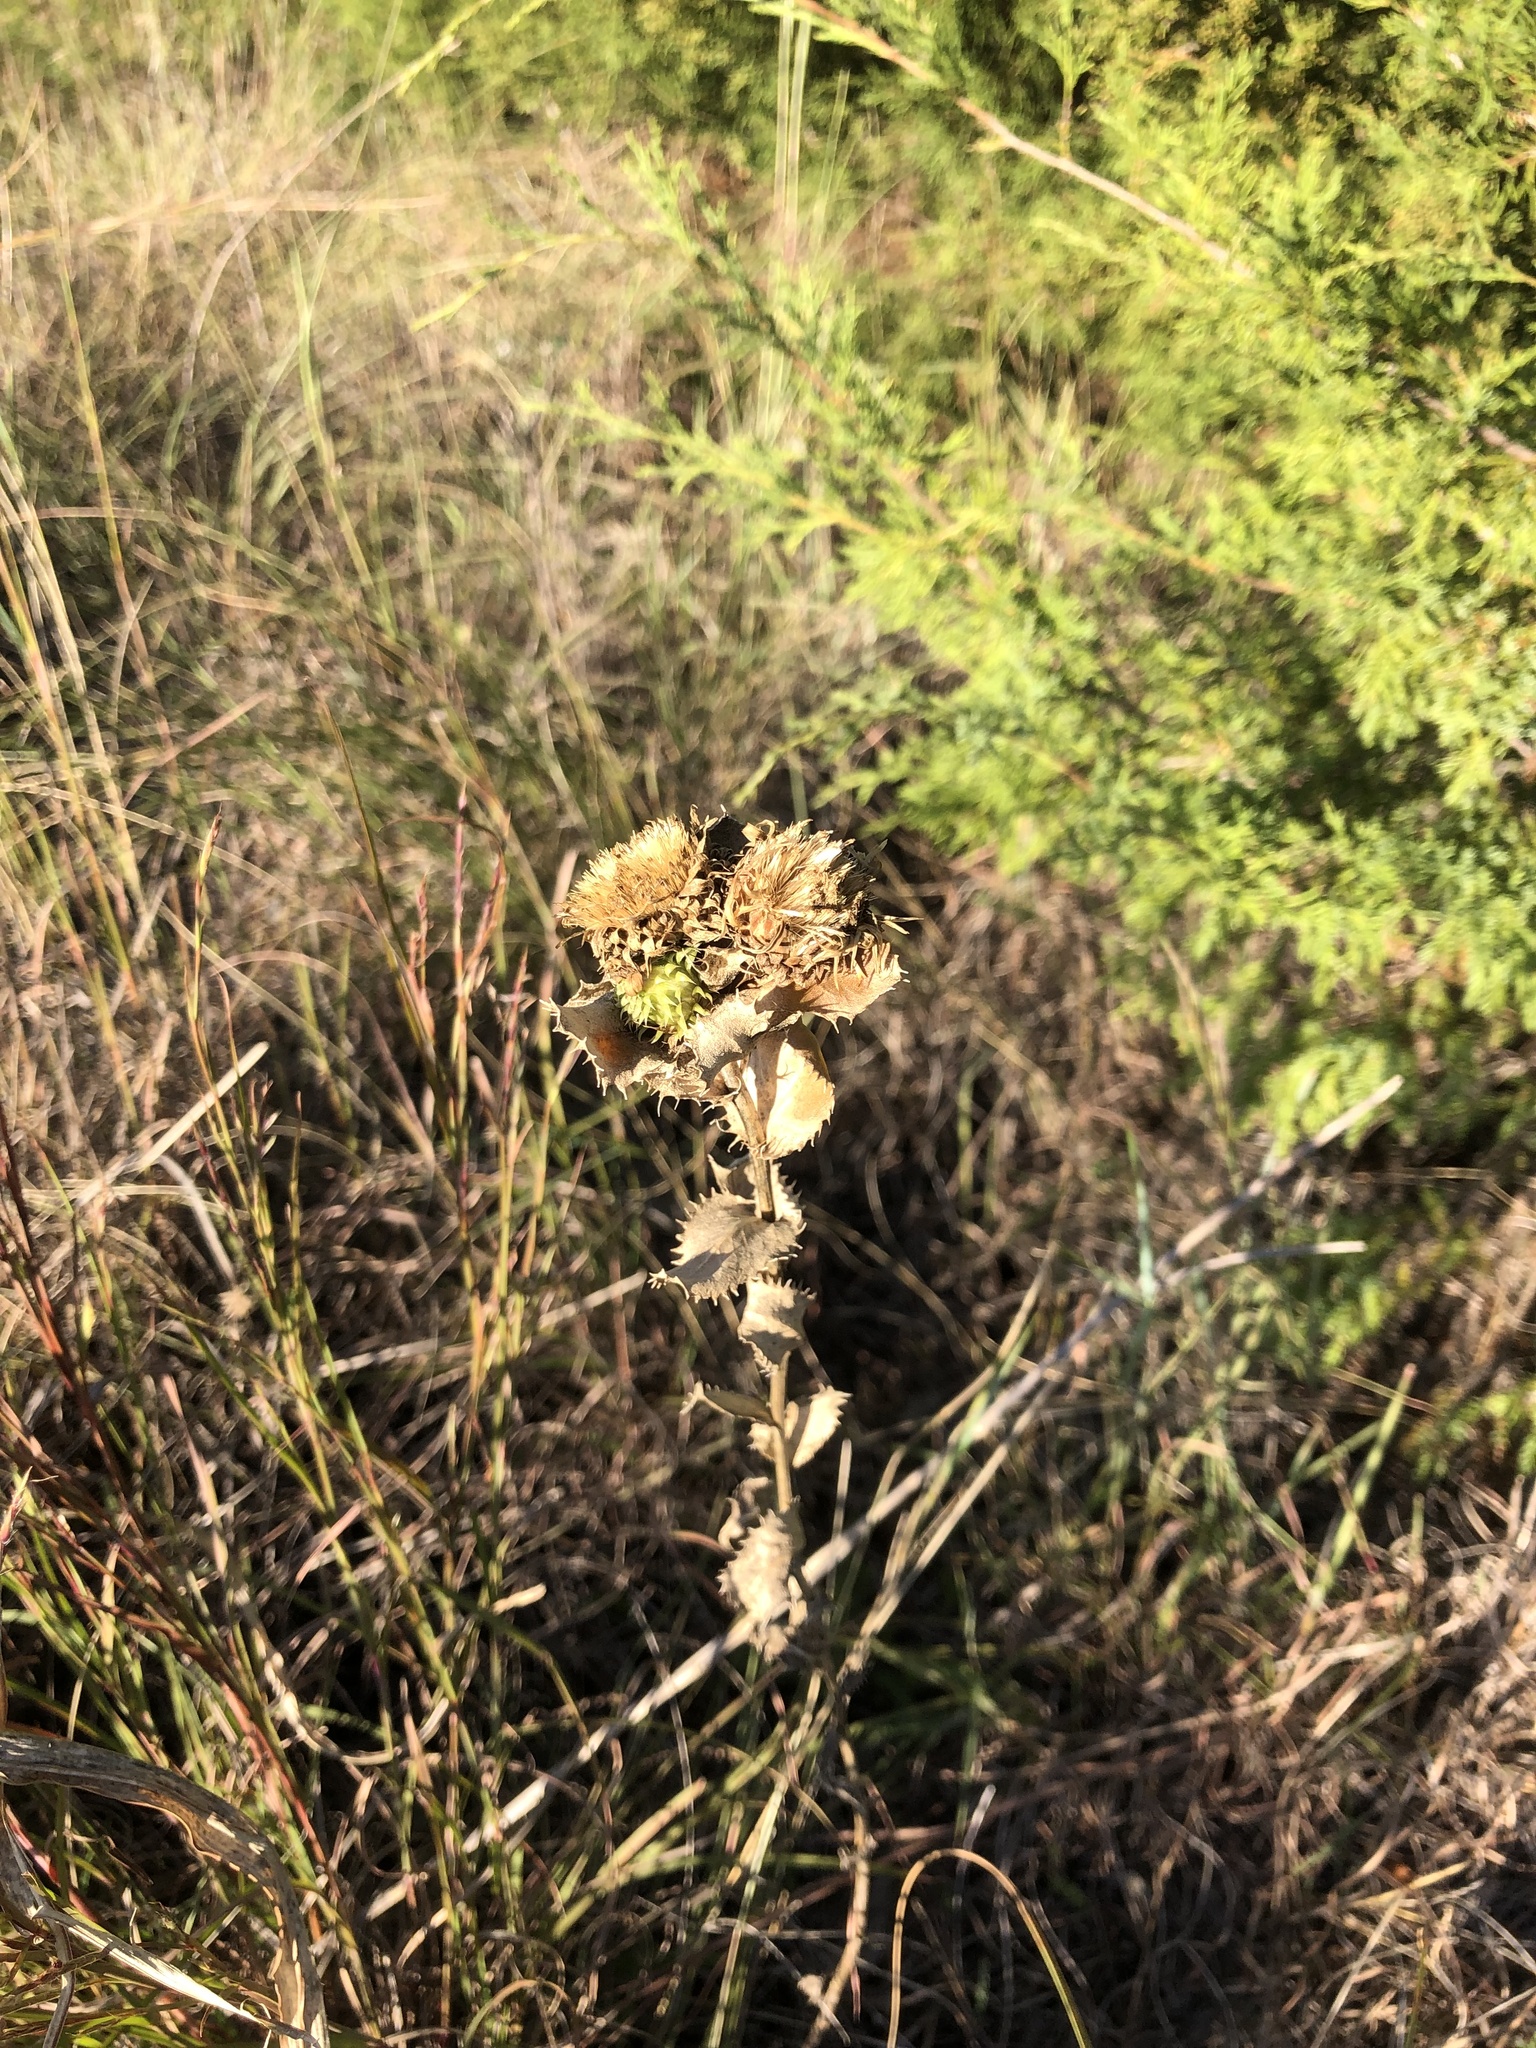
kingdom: Plantae
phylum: Tracheophyta
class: Magnoliopsida
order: Asterales
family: Asteraceae
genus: Grindelia
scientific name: Grindelia ciliata
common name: Goldenweed
